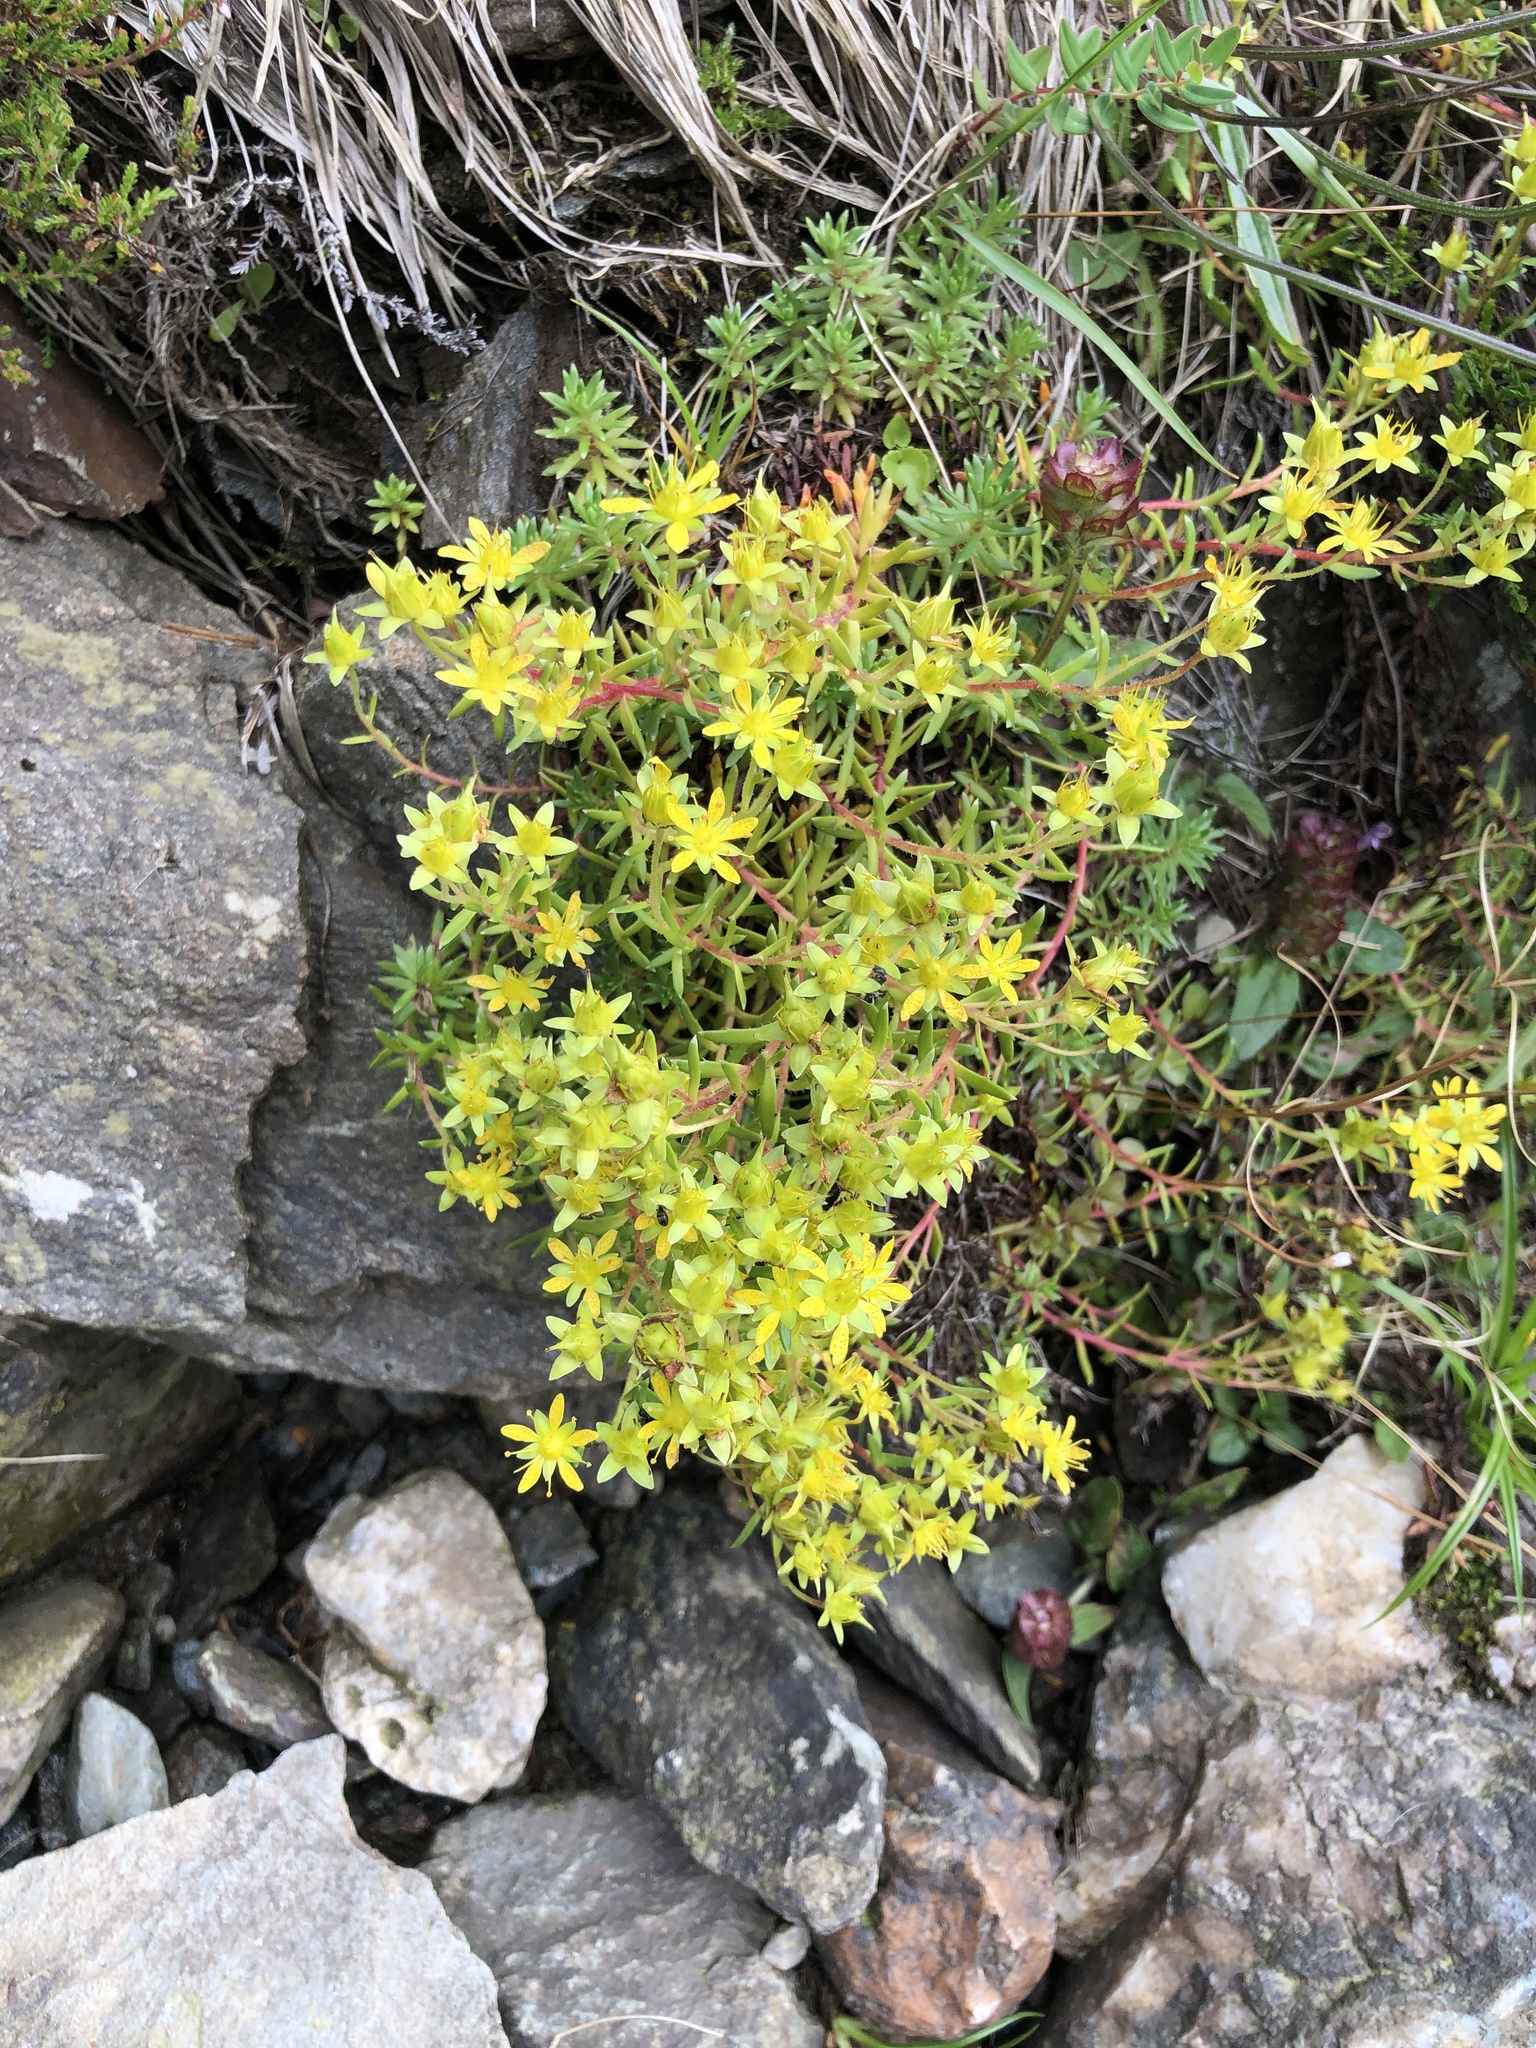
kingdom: Plantae
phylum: Tracheophyta
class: Magnoliopsida
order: Saxifragales
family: Saxifragaceae
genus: Saxifraga
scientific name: Saxifraga aizoides
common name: Yellow mountain saxifrage
